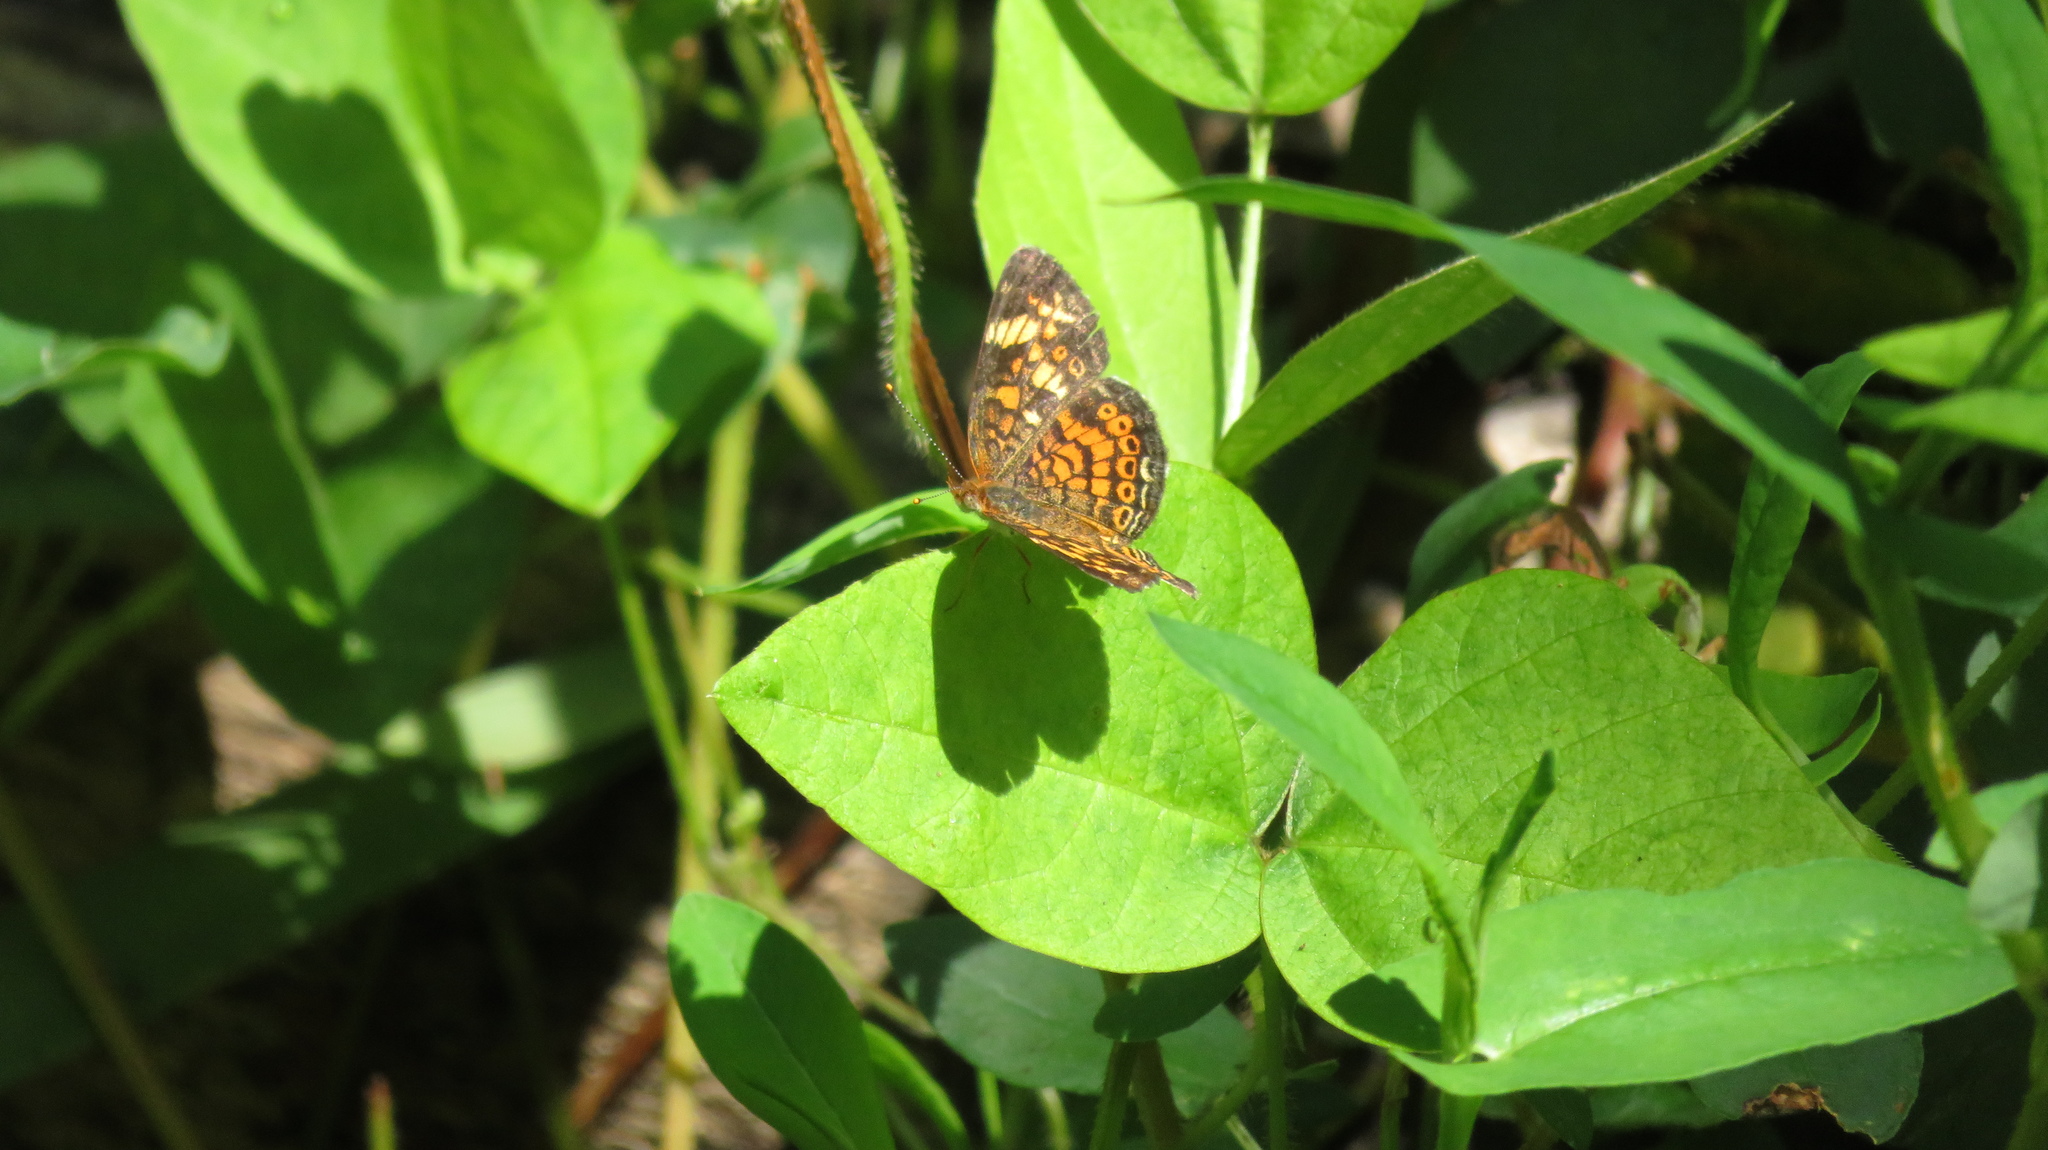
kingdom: Animalia
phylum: Arthropoda
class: Insecta
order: Lepidoptera
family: Nymphalidae
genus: Phyciodes
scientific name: Phyciodes tharos
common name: Pearl crescent
